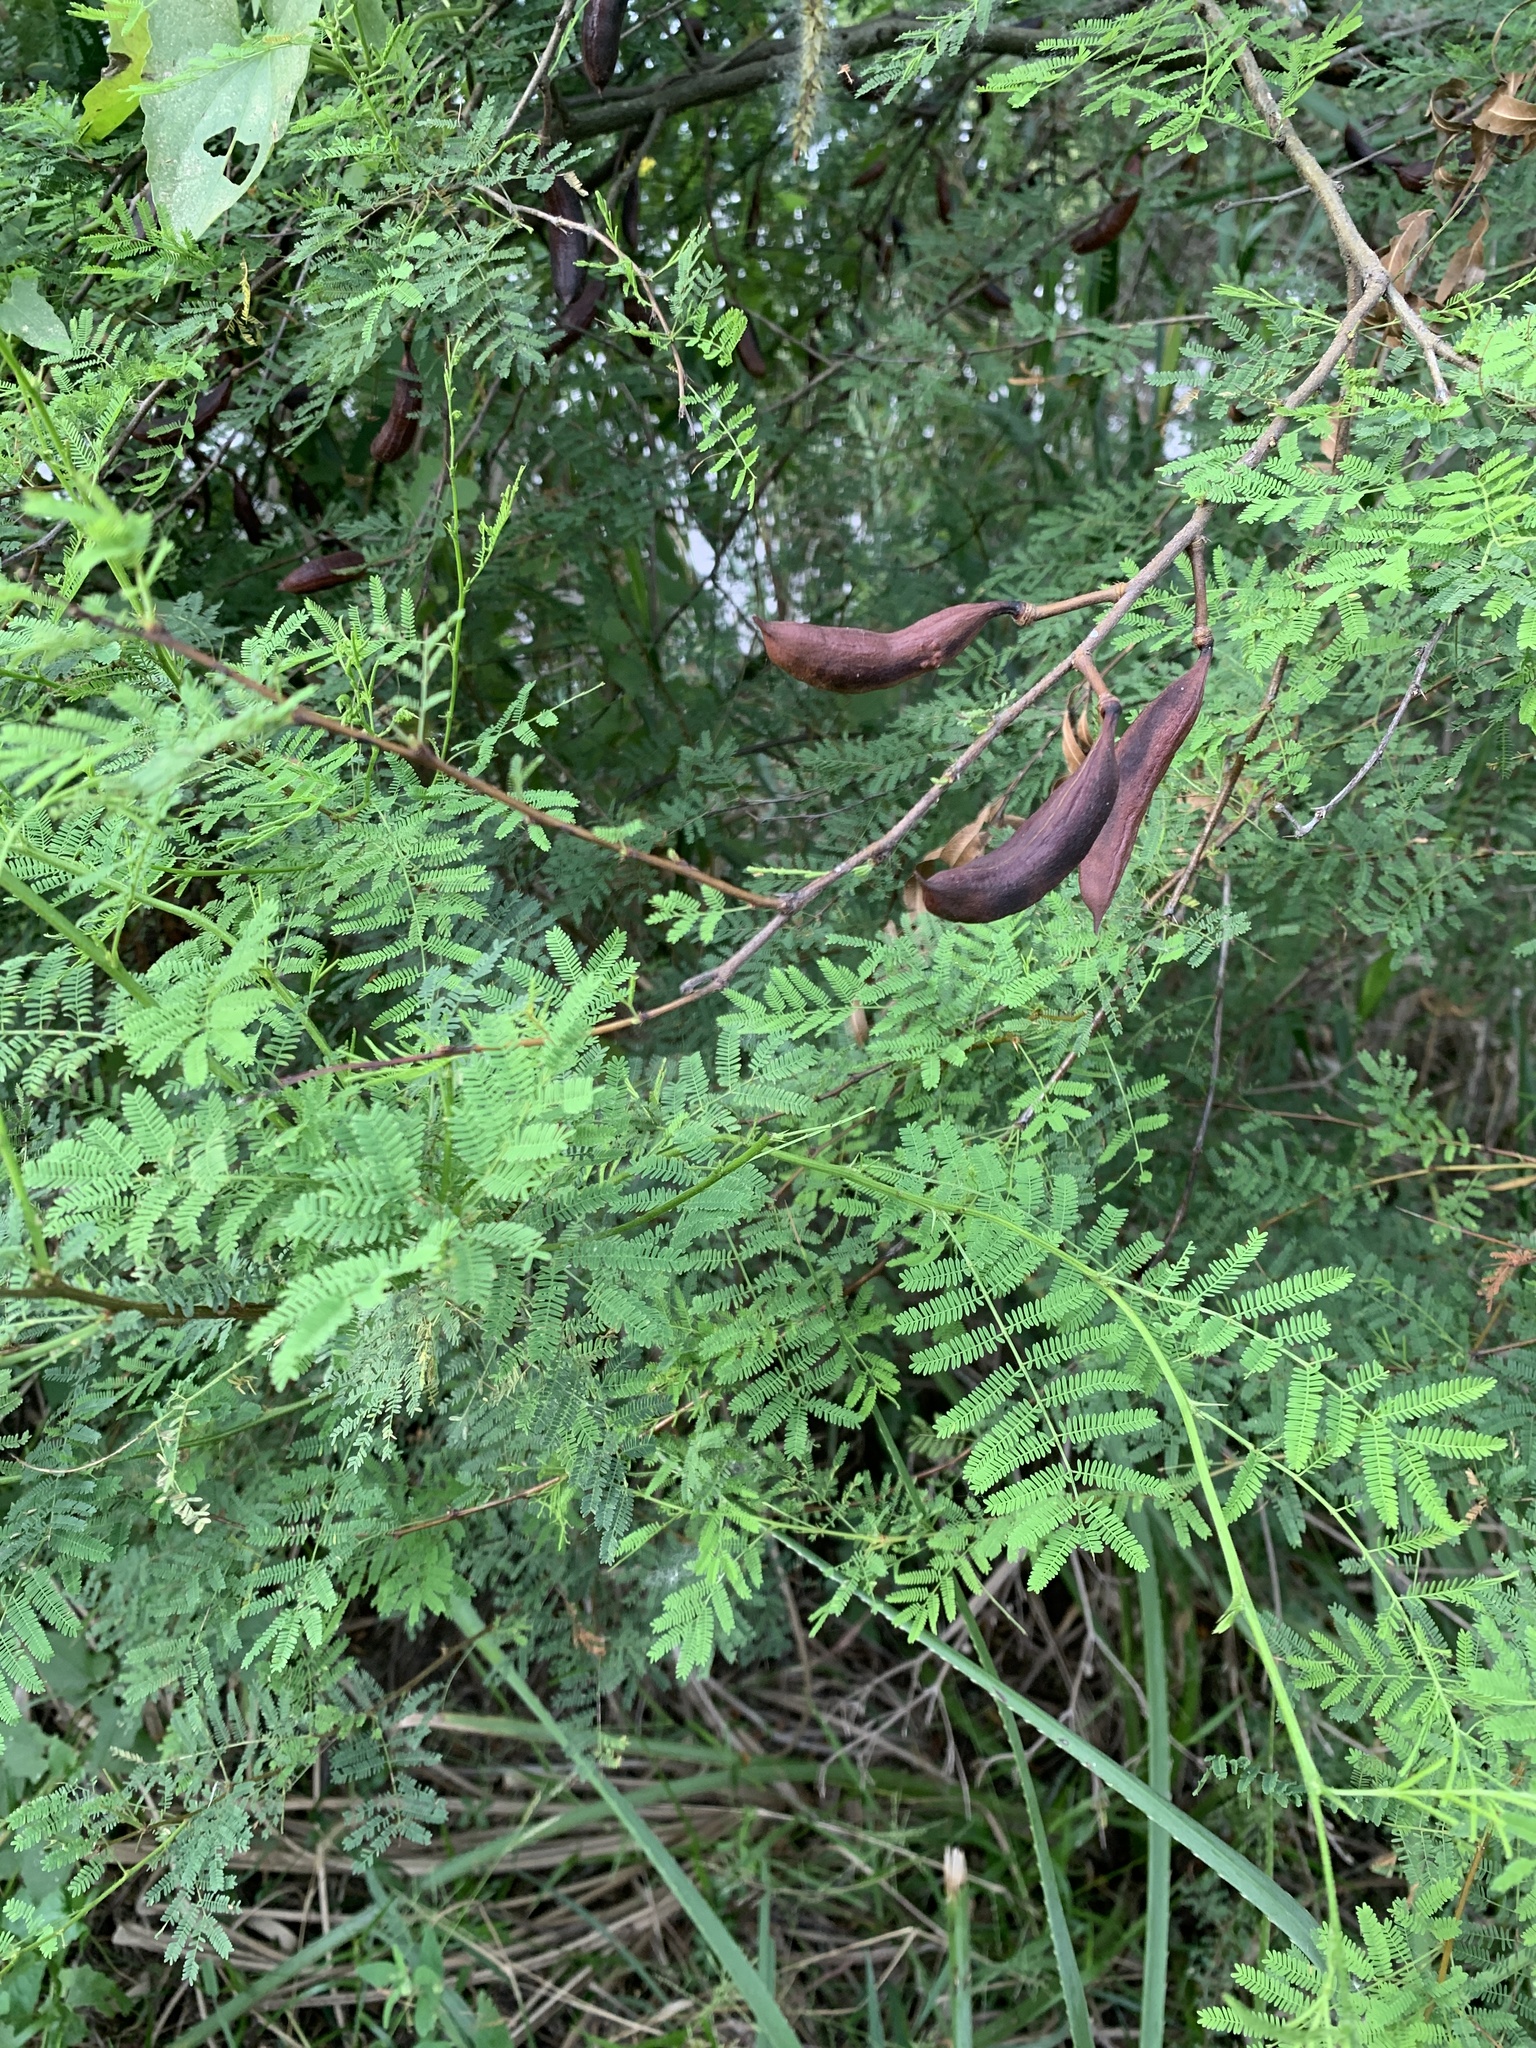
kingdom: Plantae
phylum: Tracheophyta
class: Magnoliopsida
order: Fabales
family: Fabaceae
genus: Vachellia
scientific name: Vachellia caven
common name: Roman cassie
